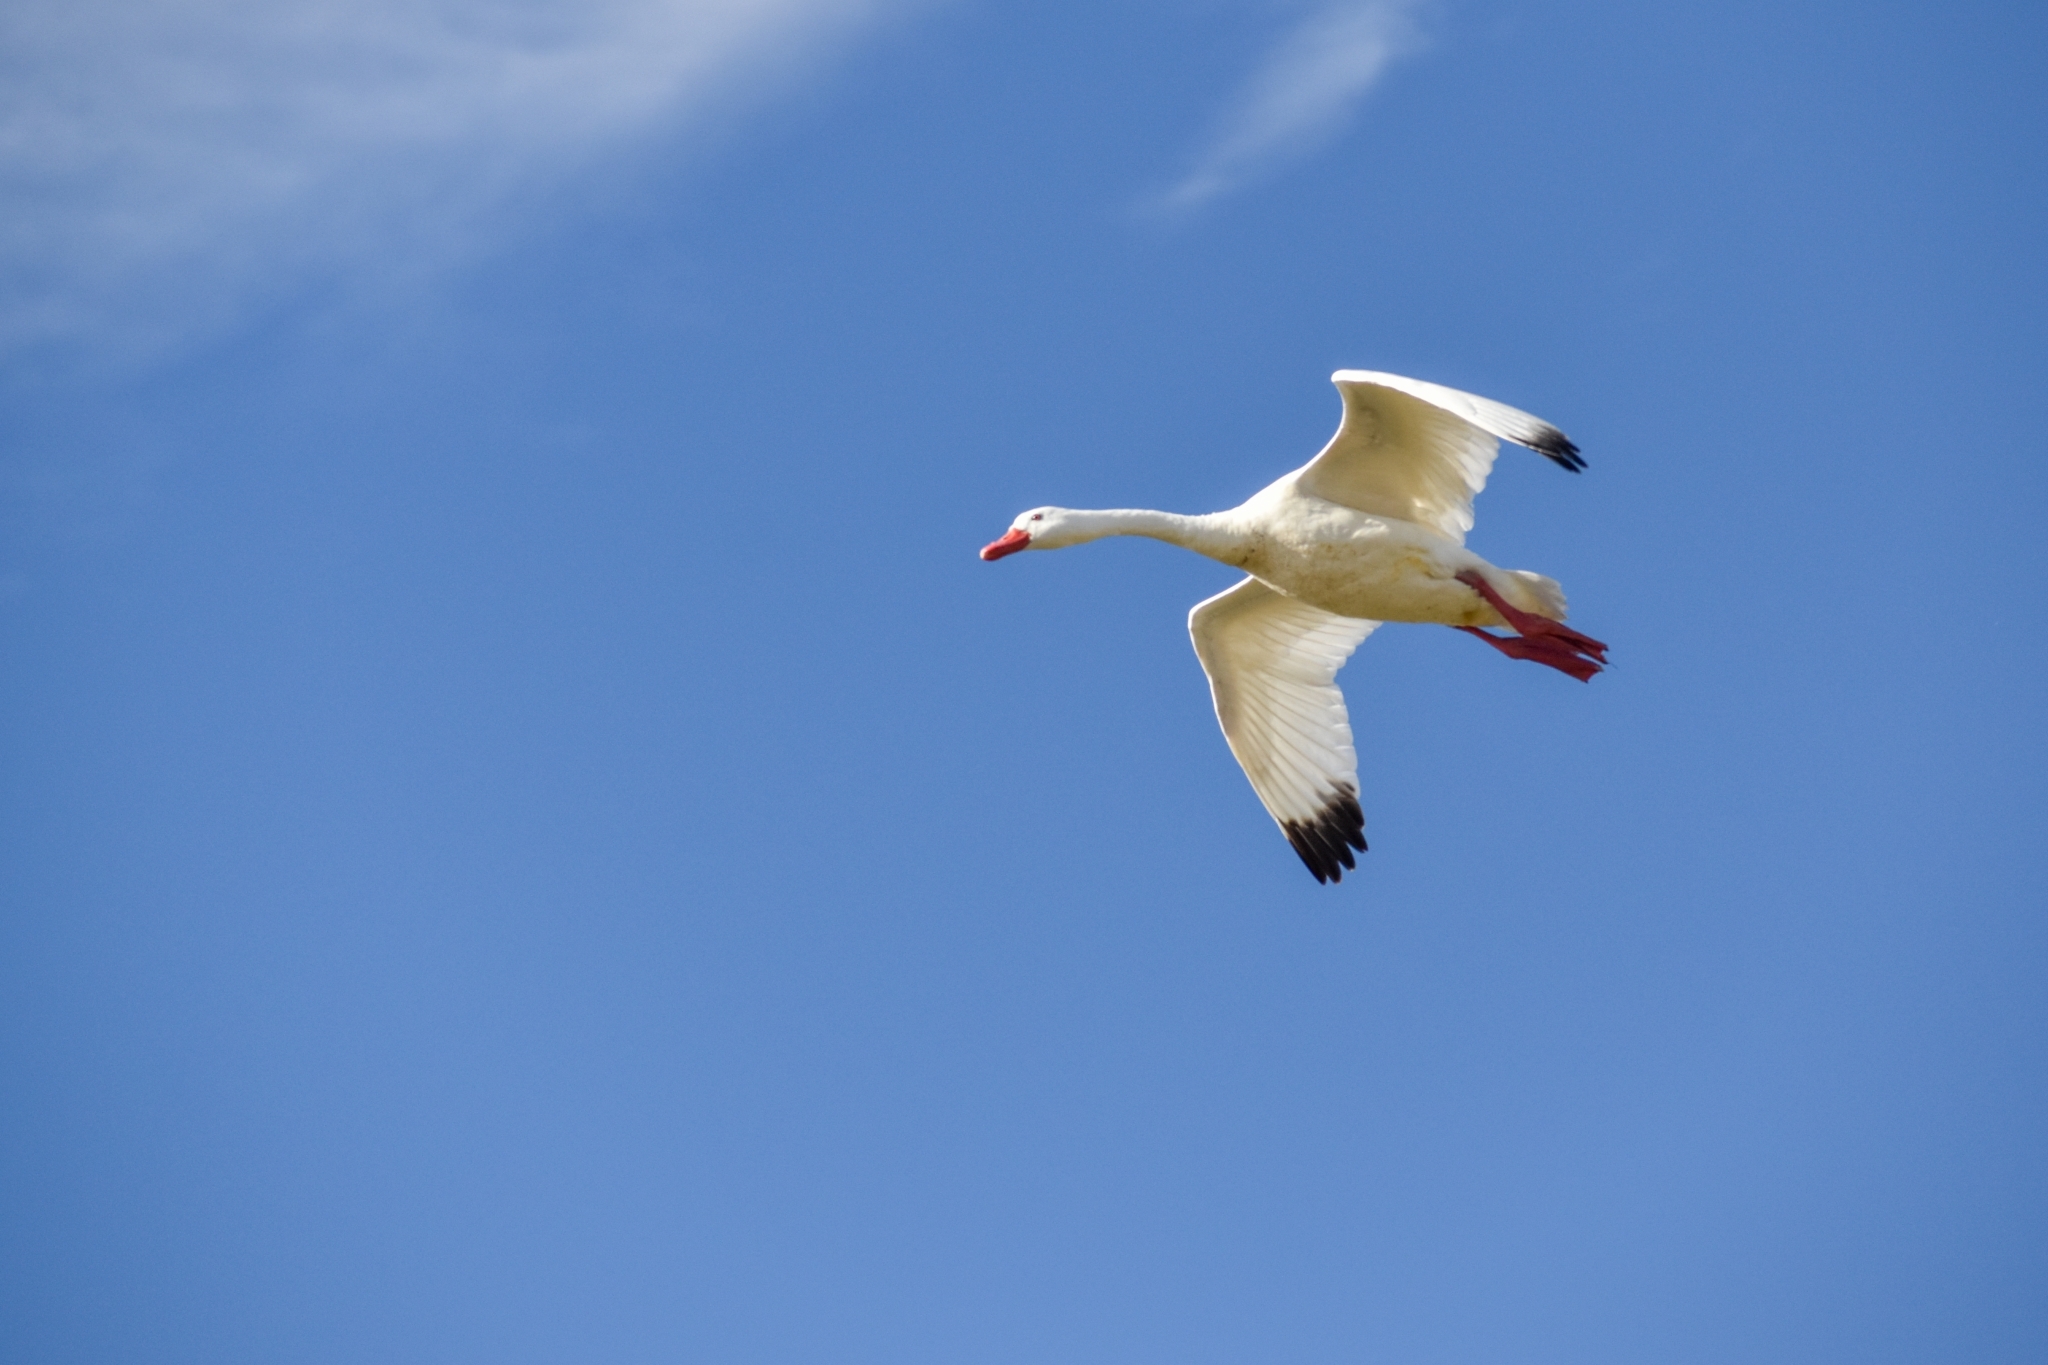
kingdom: Animalia
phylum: Chordata
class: Aves
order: Anseriformes
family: Anatidae
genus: Coscoroba
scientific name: Coscoroba coscoroba
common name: Coscoroba swan
